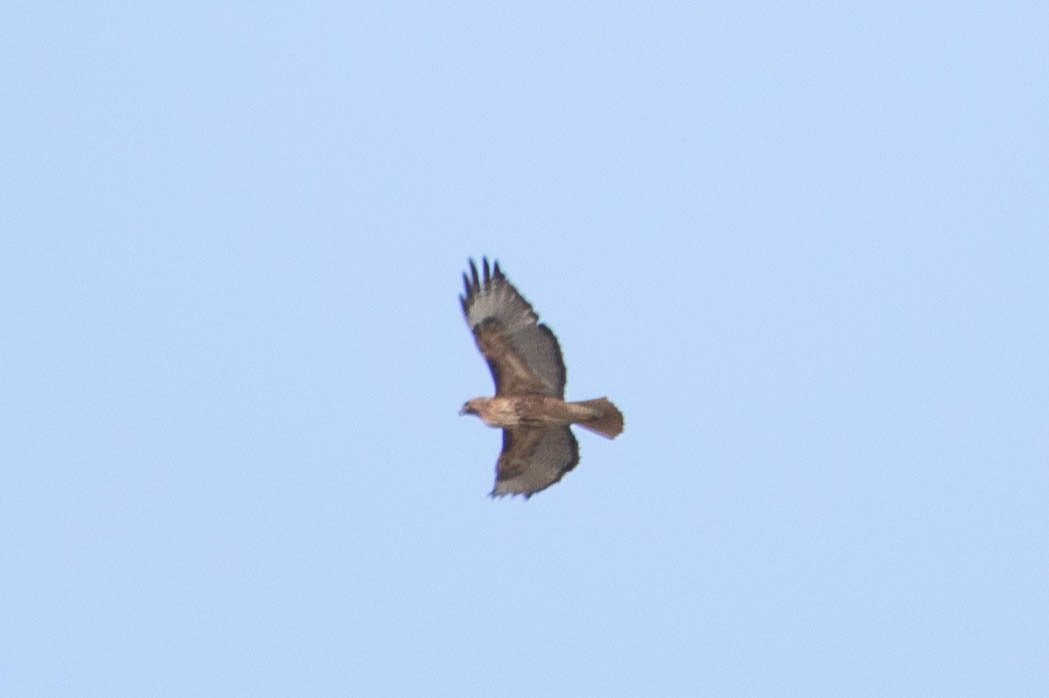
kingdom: Animalia
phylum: Chordata
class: Aves
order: Accipitriformes
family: Accipitridae
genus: Buteo
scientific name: Buteo jamaicensis
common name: Red-tailed hawk
